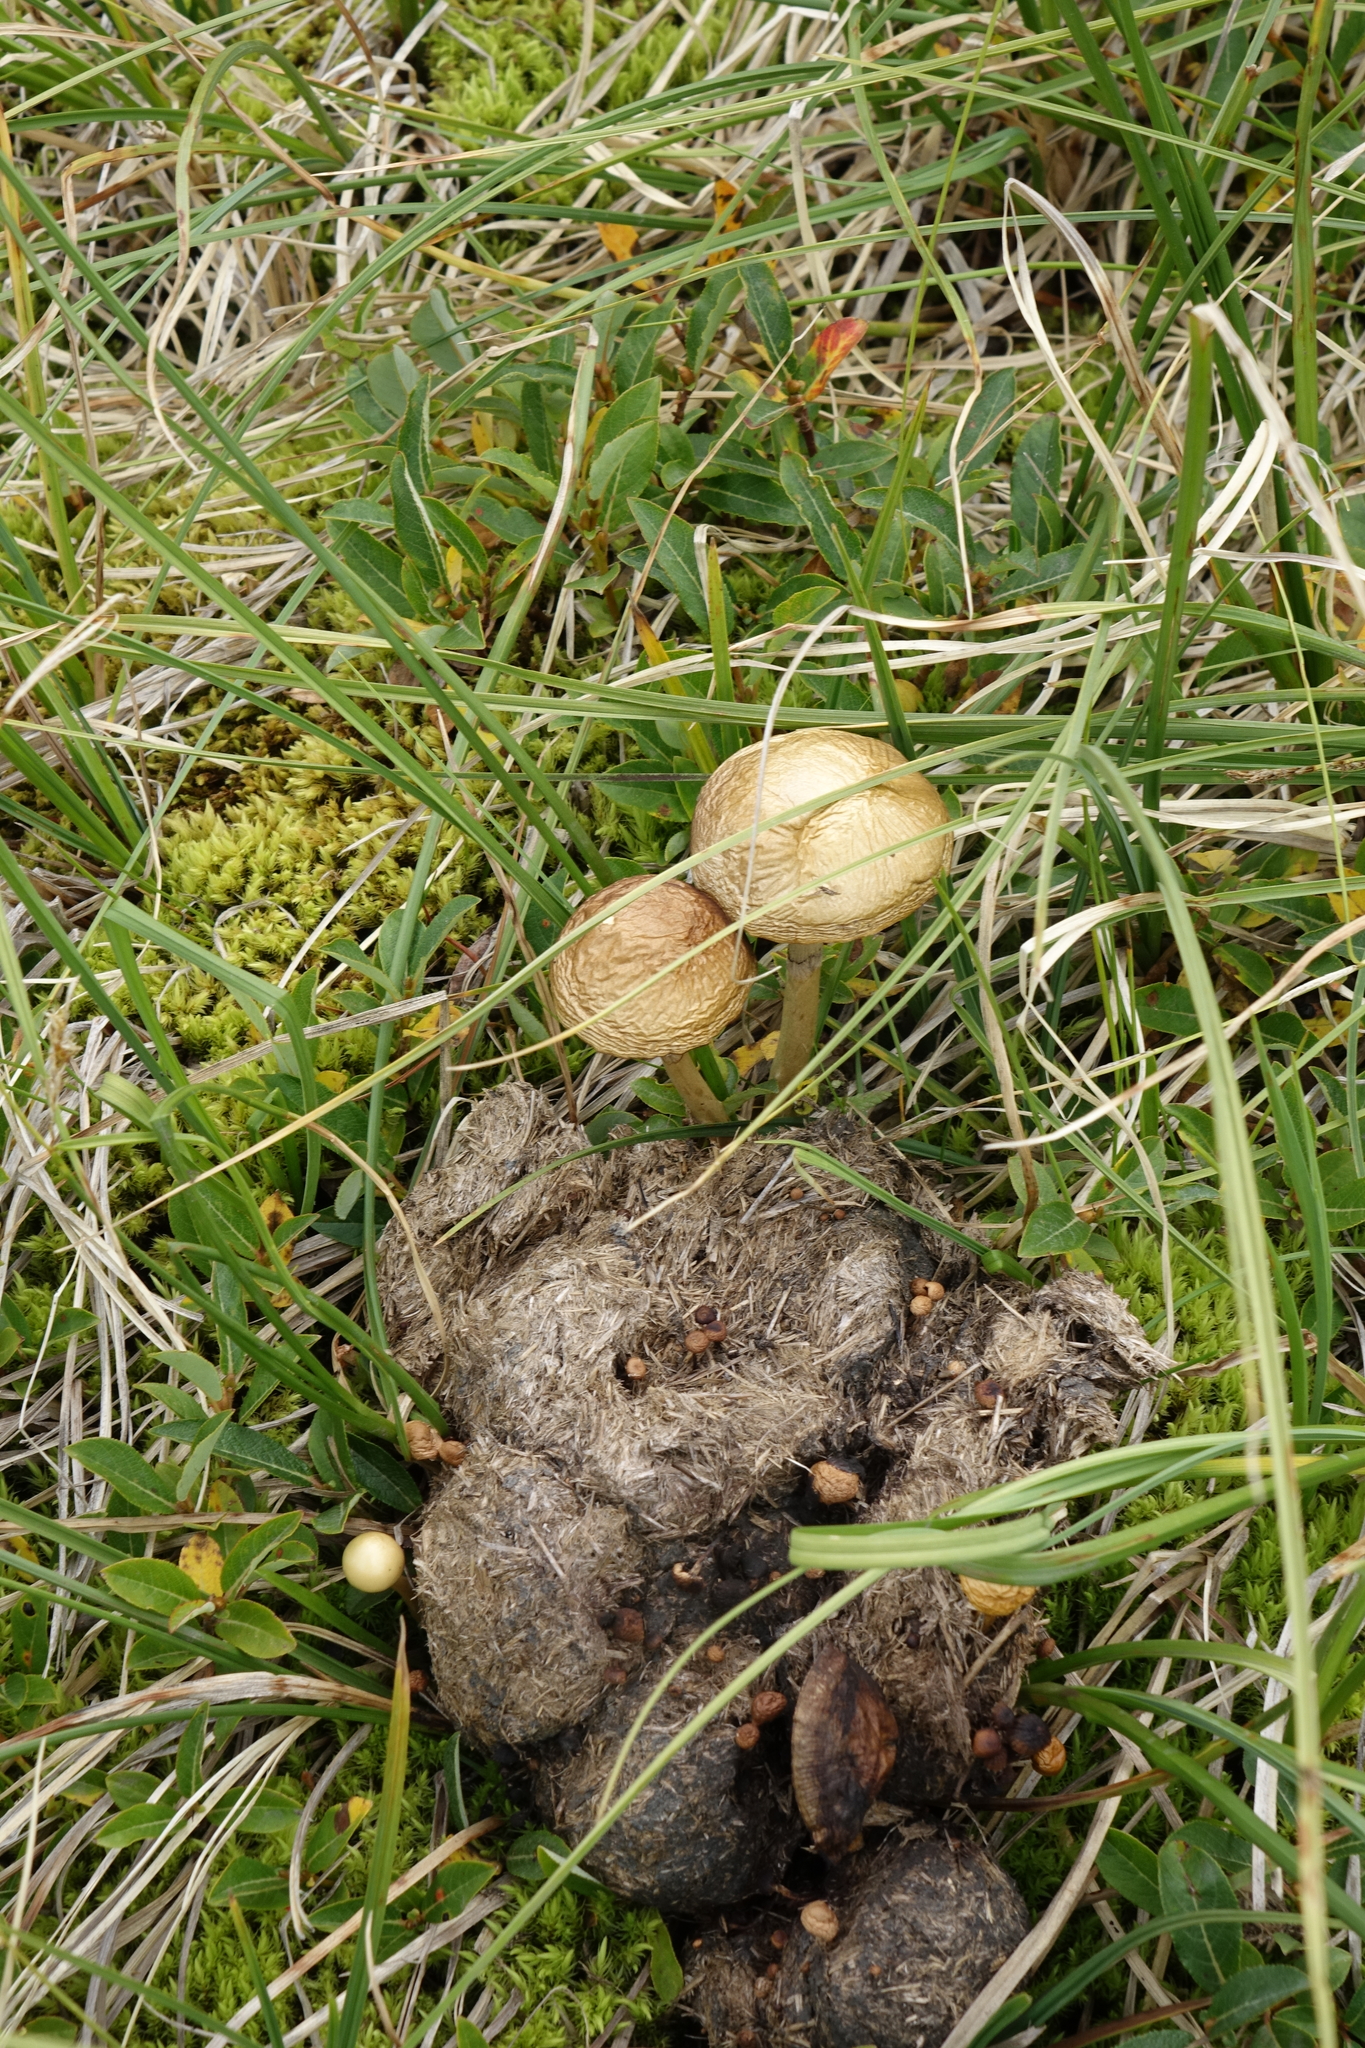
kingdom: Fungi
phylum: Basidiomycota
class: Agaricomycetes
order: Agaricales
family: Bolbitiaceae
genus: Panaeolus
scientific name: Panaeolus semiovatus
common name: Shiny mottlegill
